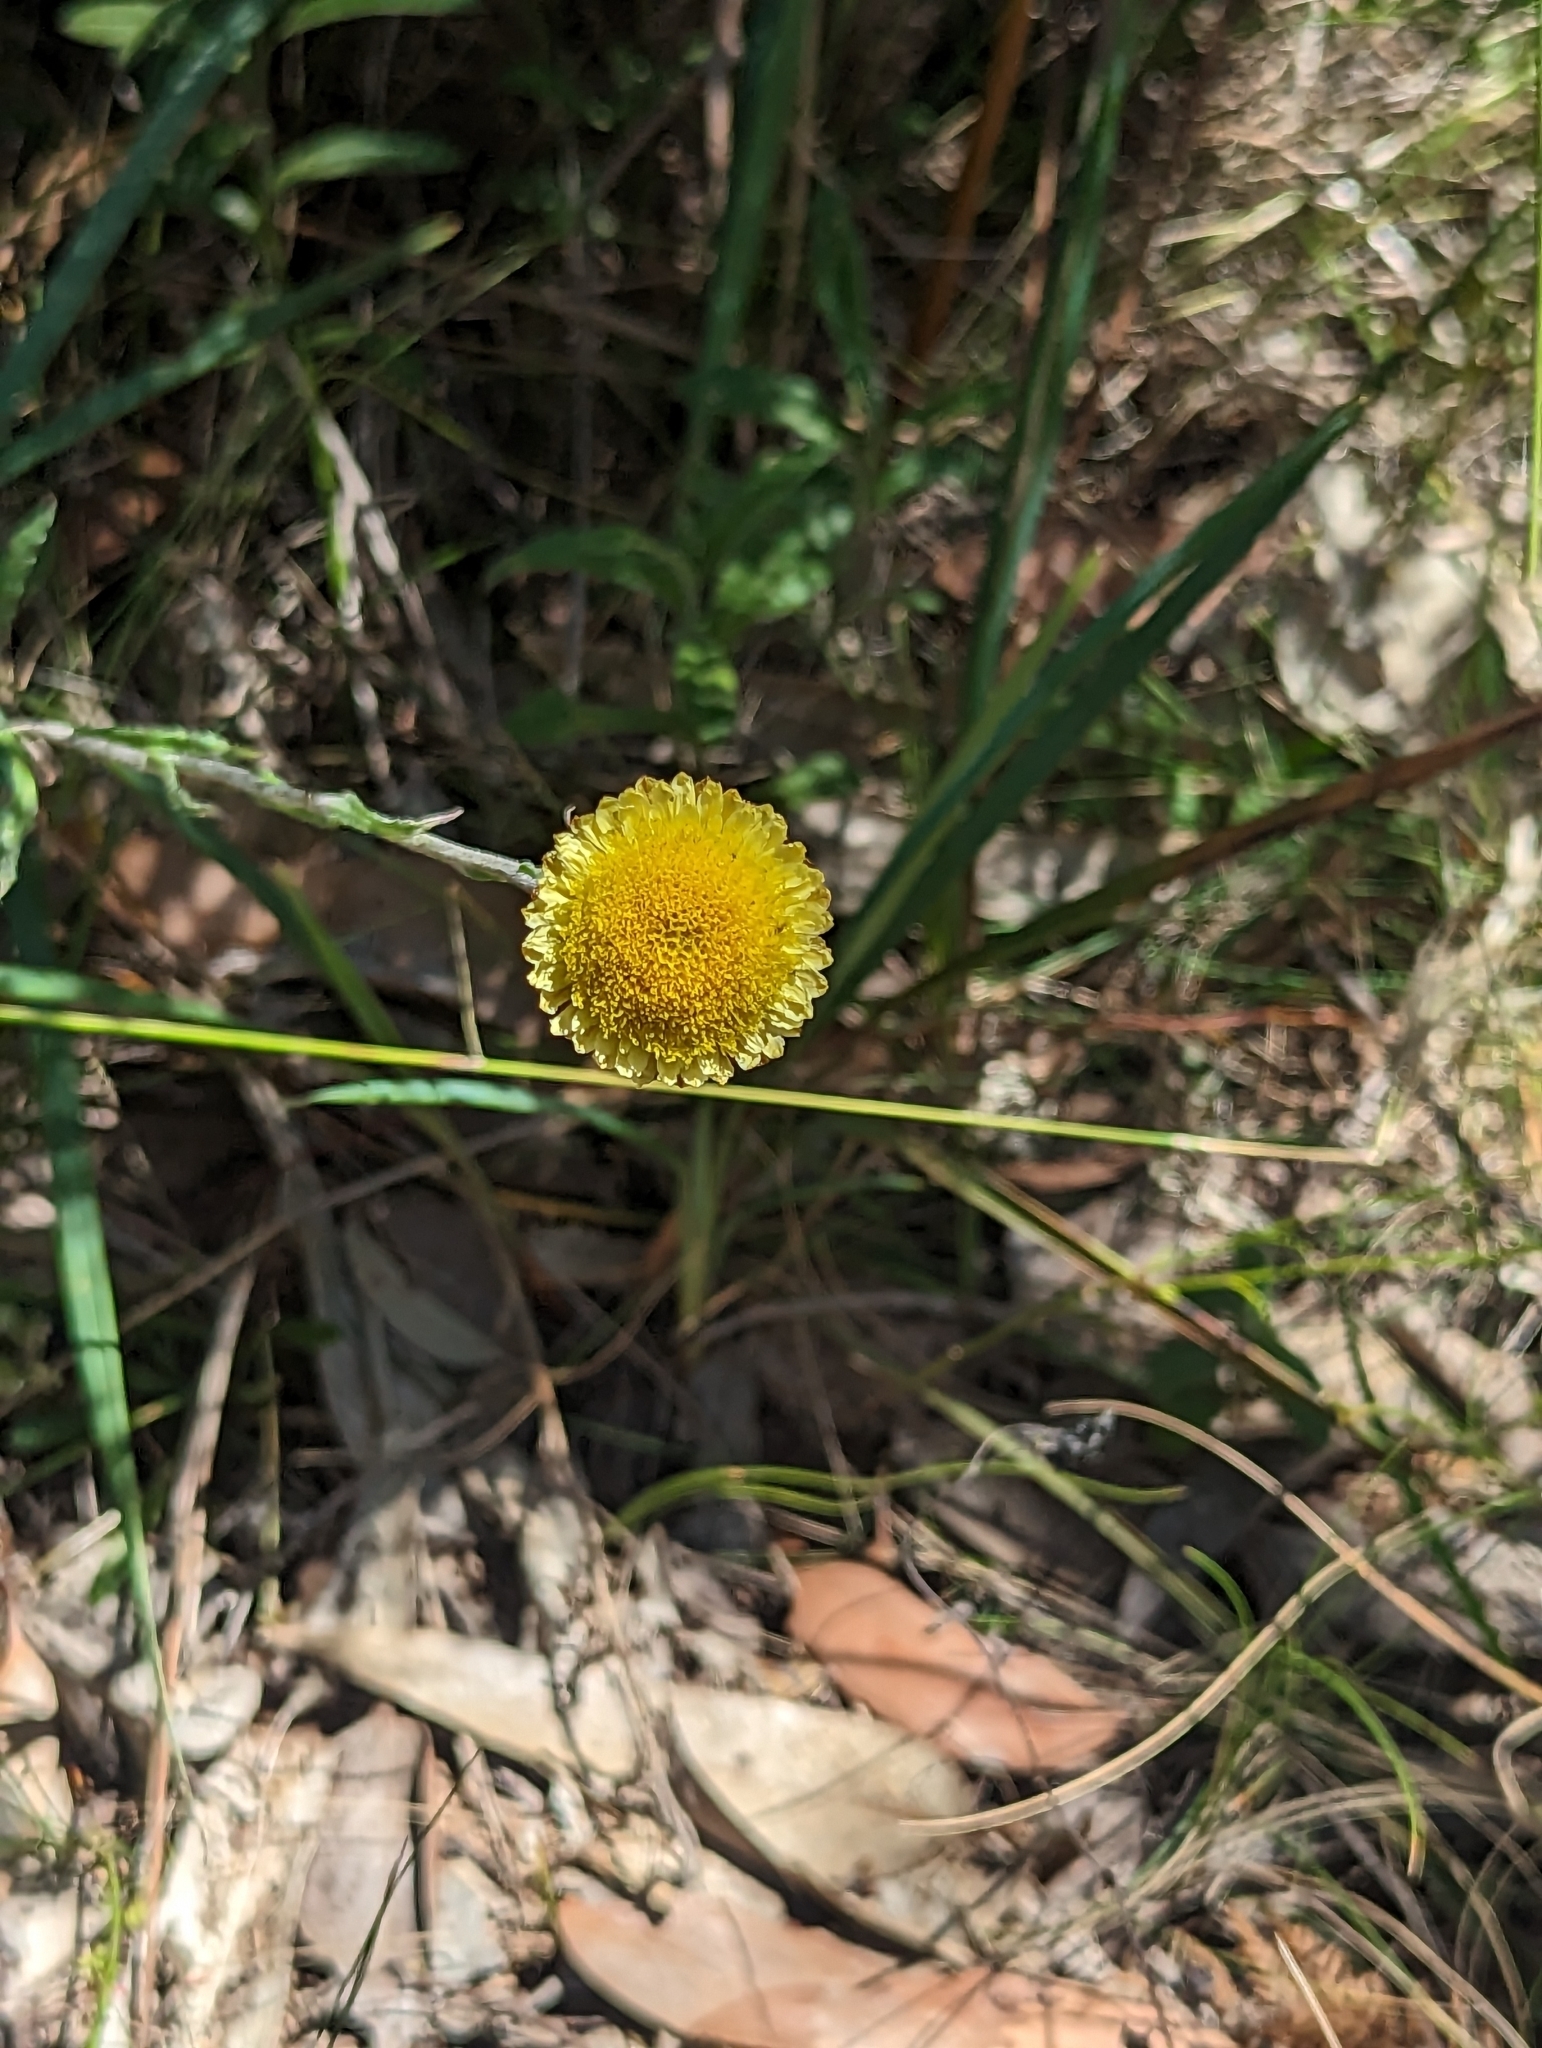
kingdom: Plantae
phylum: Tracheophyta
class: Magnoliopsida
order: Asterales
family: Asteraceae
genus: Coronidium
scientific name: Coronidium scorpioides
